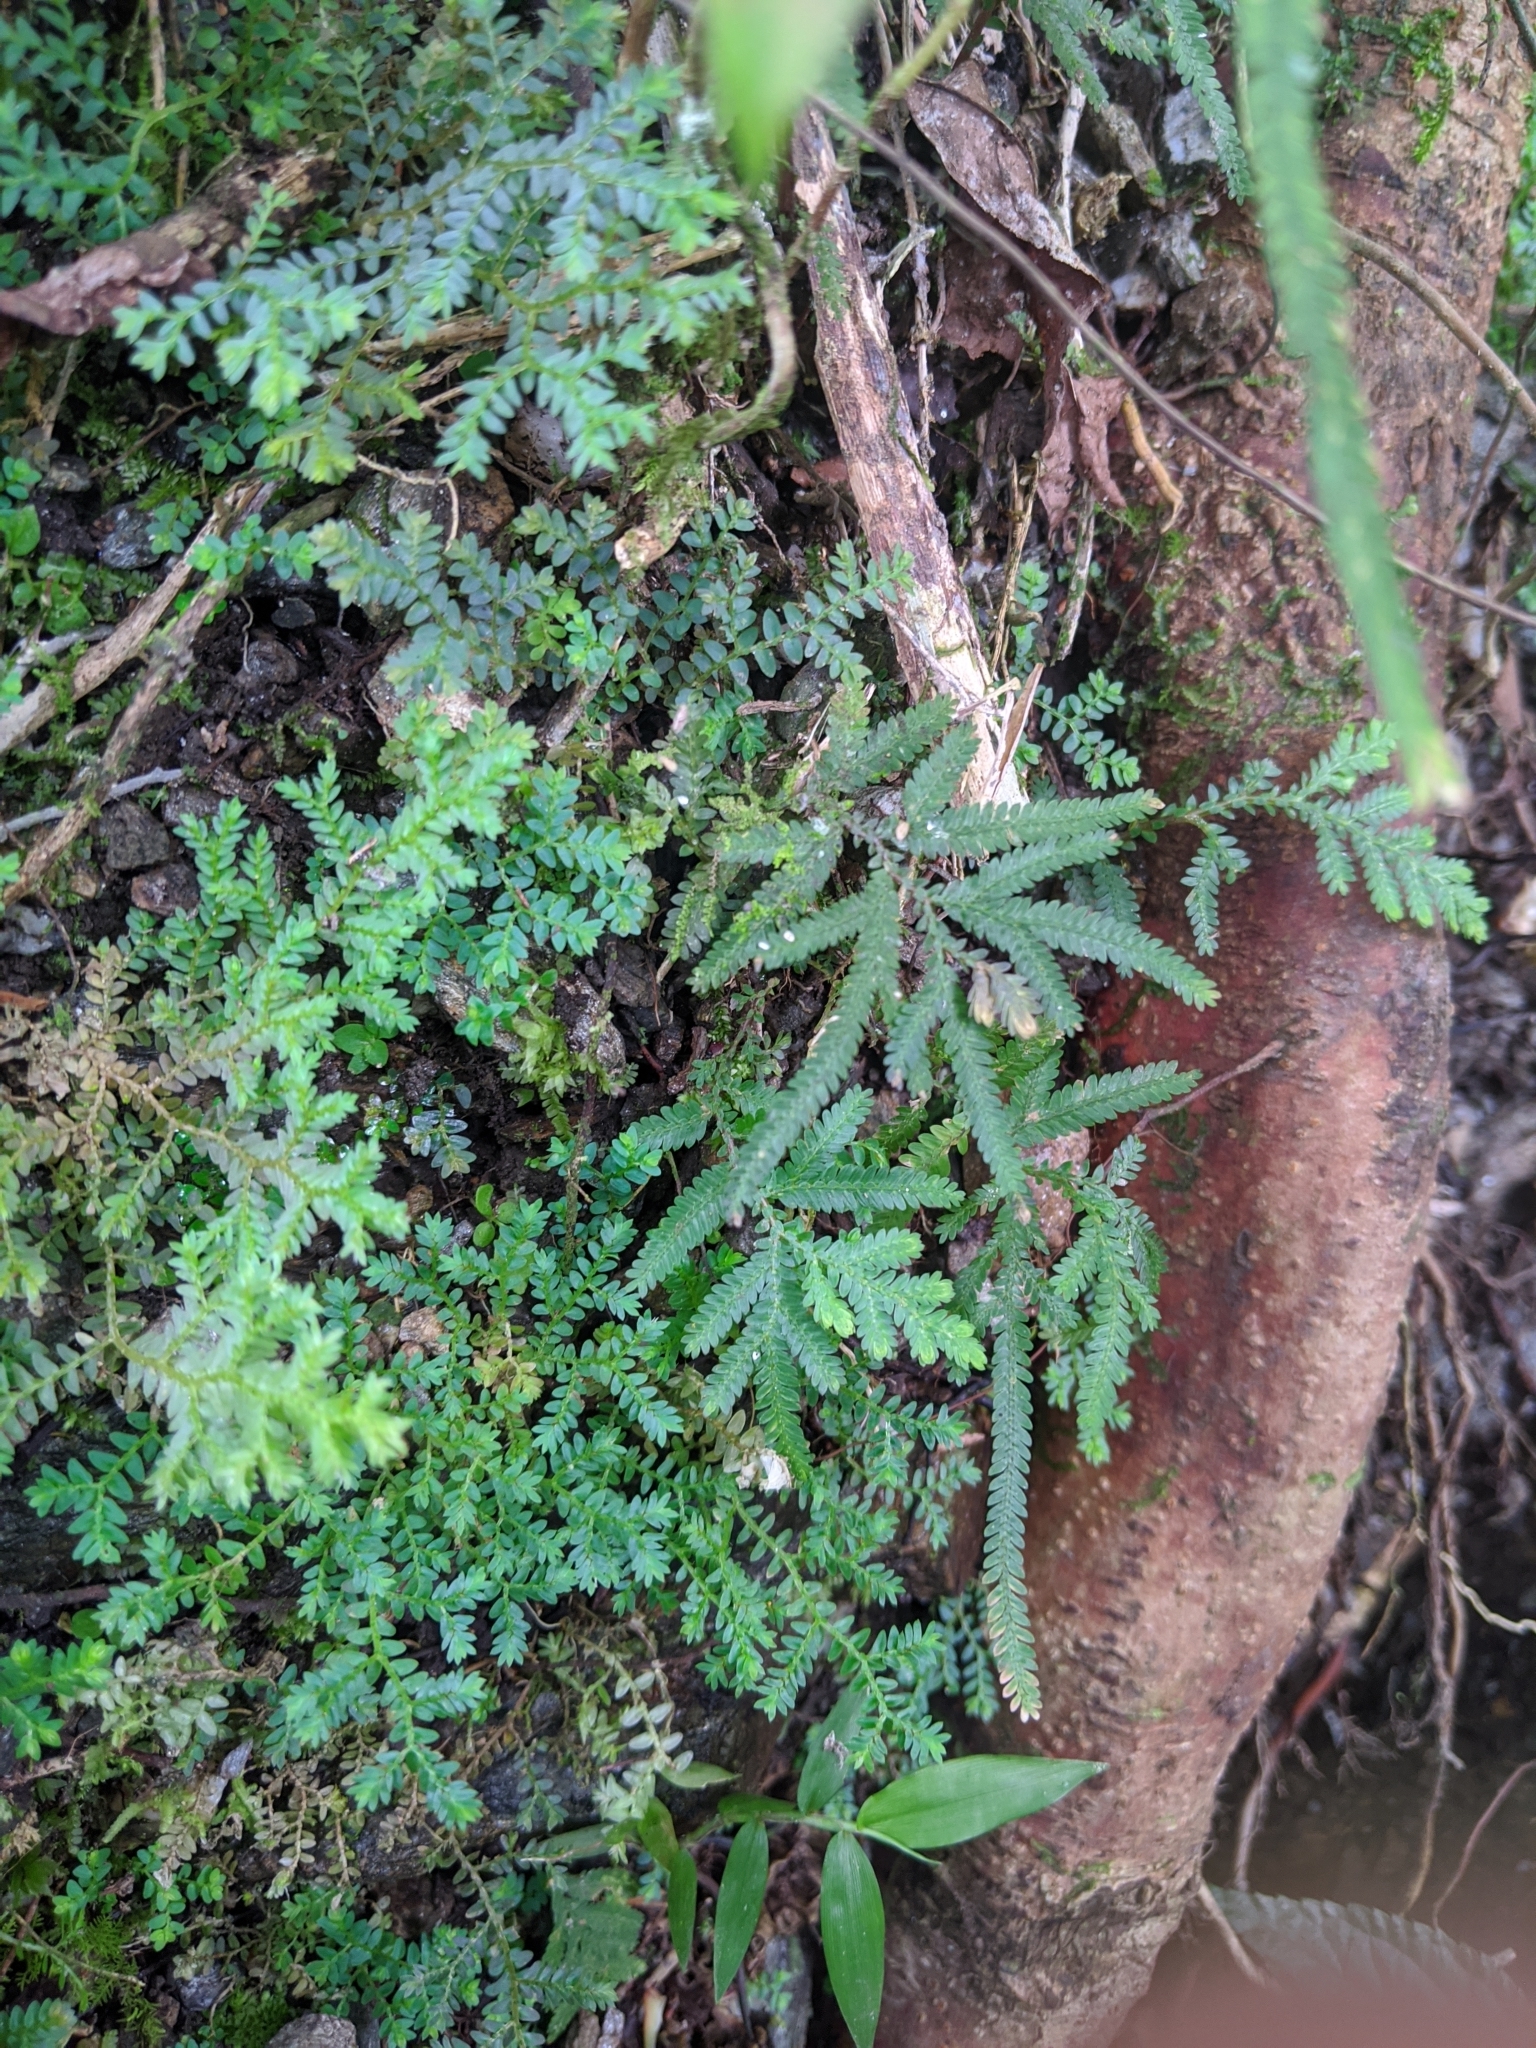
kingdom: Plantae
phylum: Tracheophyta
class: Lycopodiopsida
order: Selaginellales
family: Selaginellaceae
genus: Selaginella
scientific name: Selaginella delicatula
